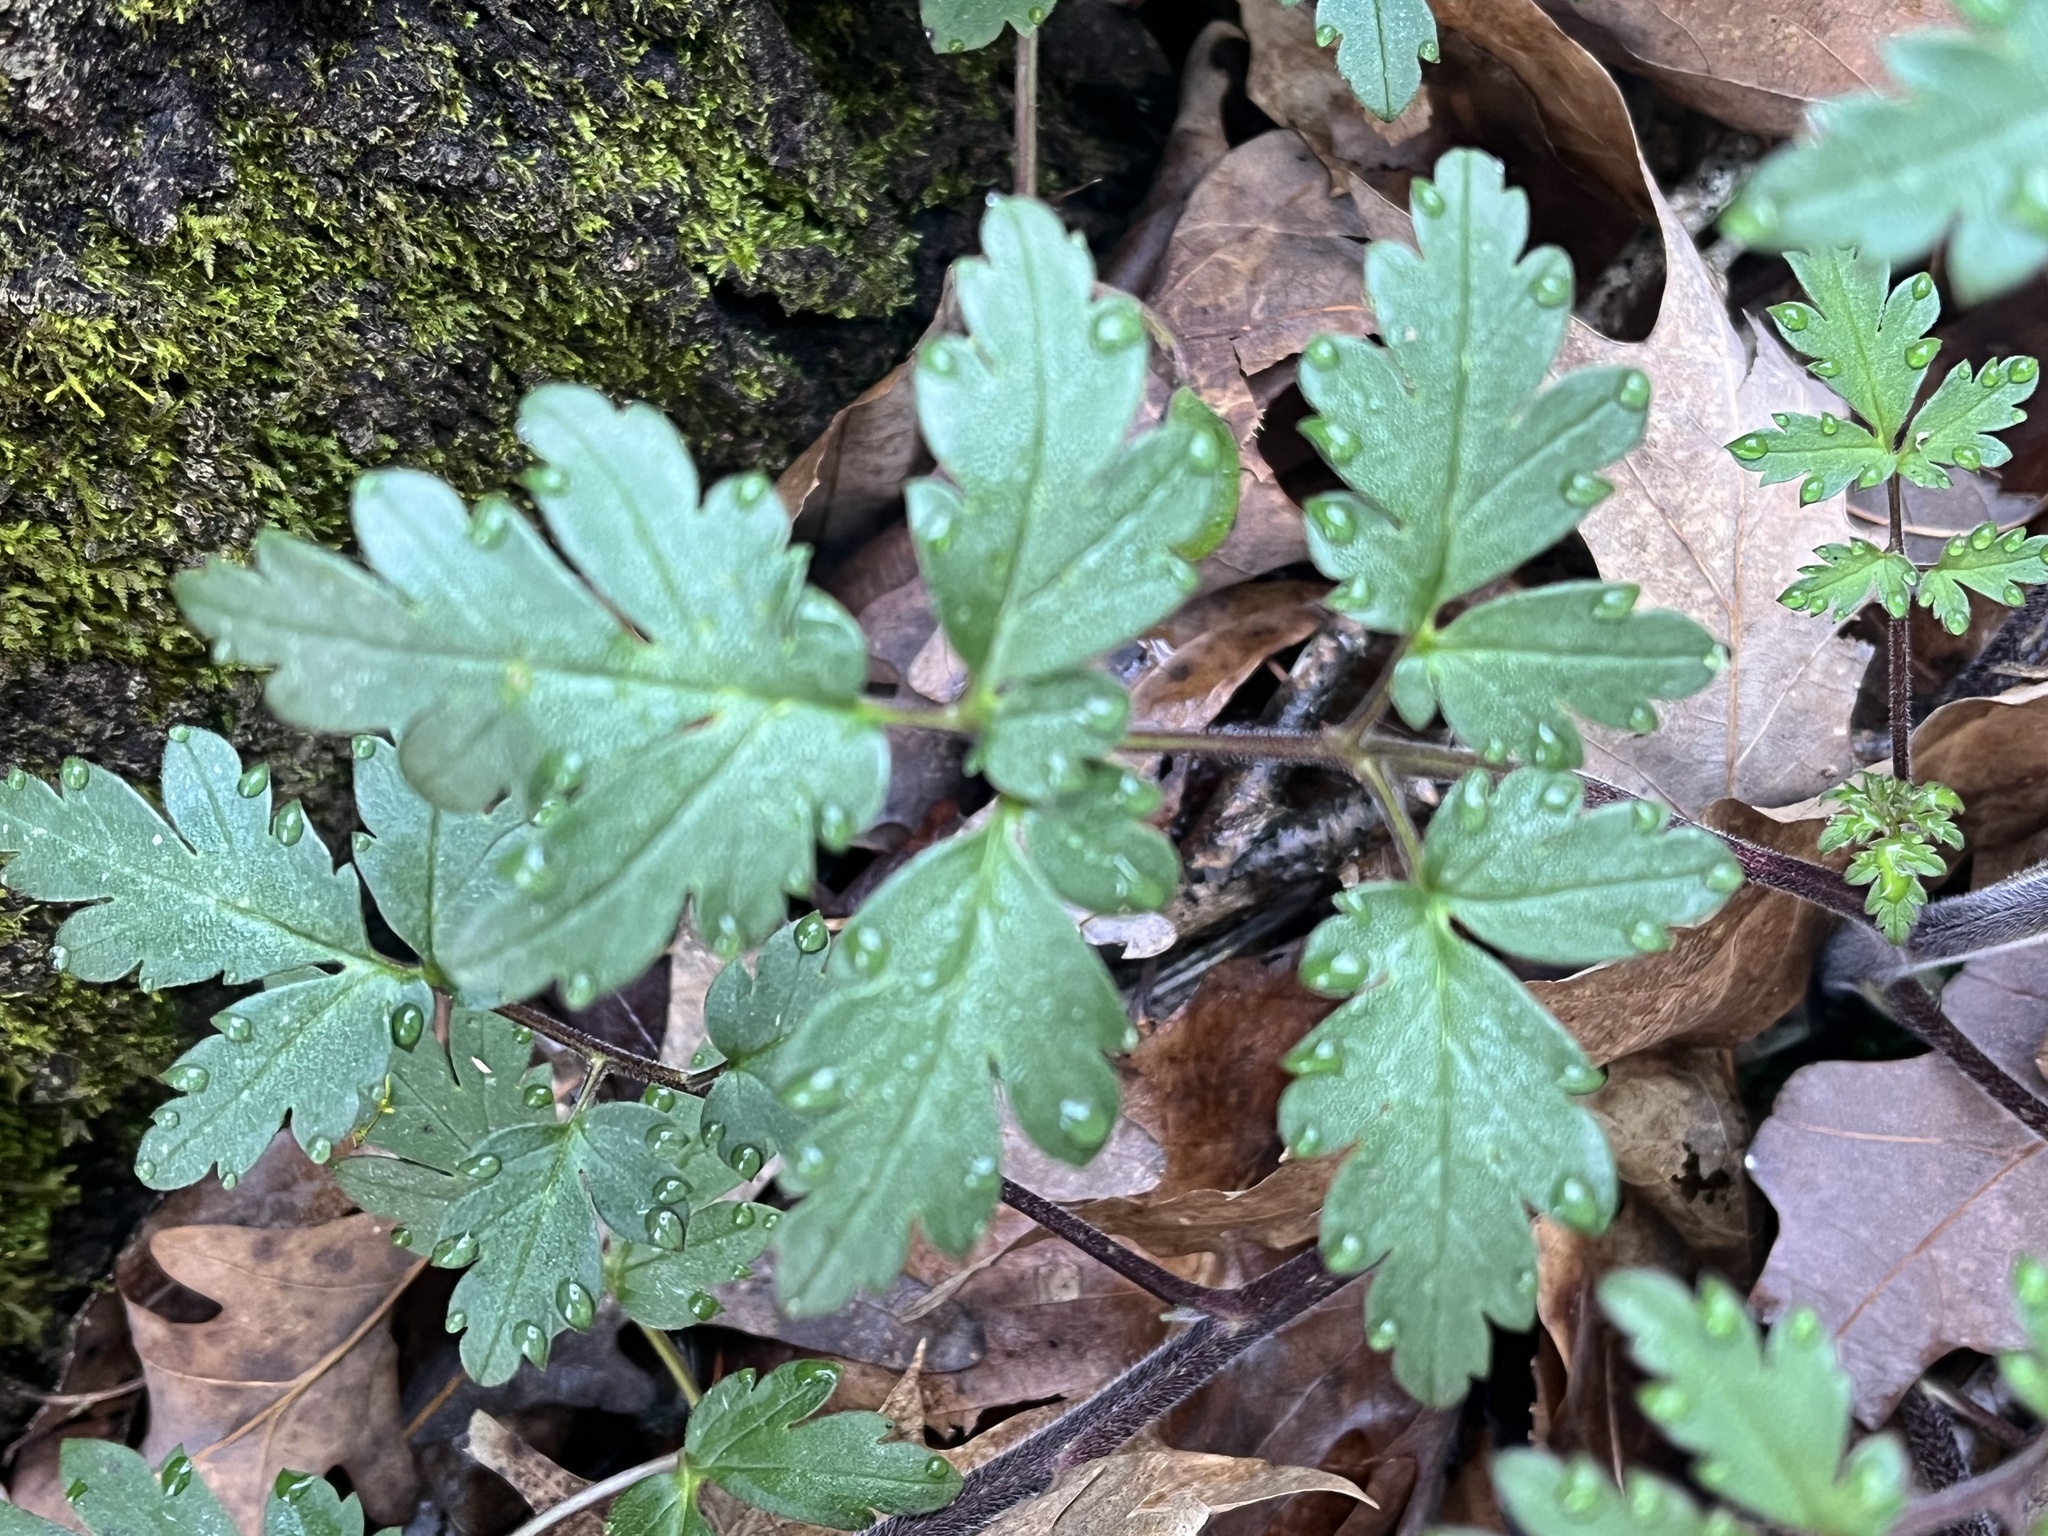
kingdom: Plantae
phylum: Tracheophyta
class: Magnoliopsida
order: Boraginales
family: Hydrophyllaceae
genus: Phacelia
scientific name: Phacelia bipinnatifida
